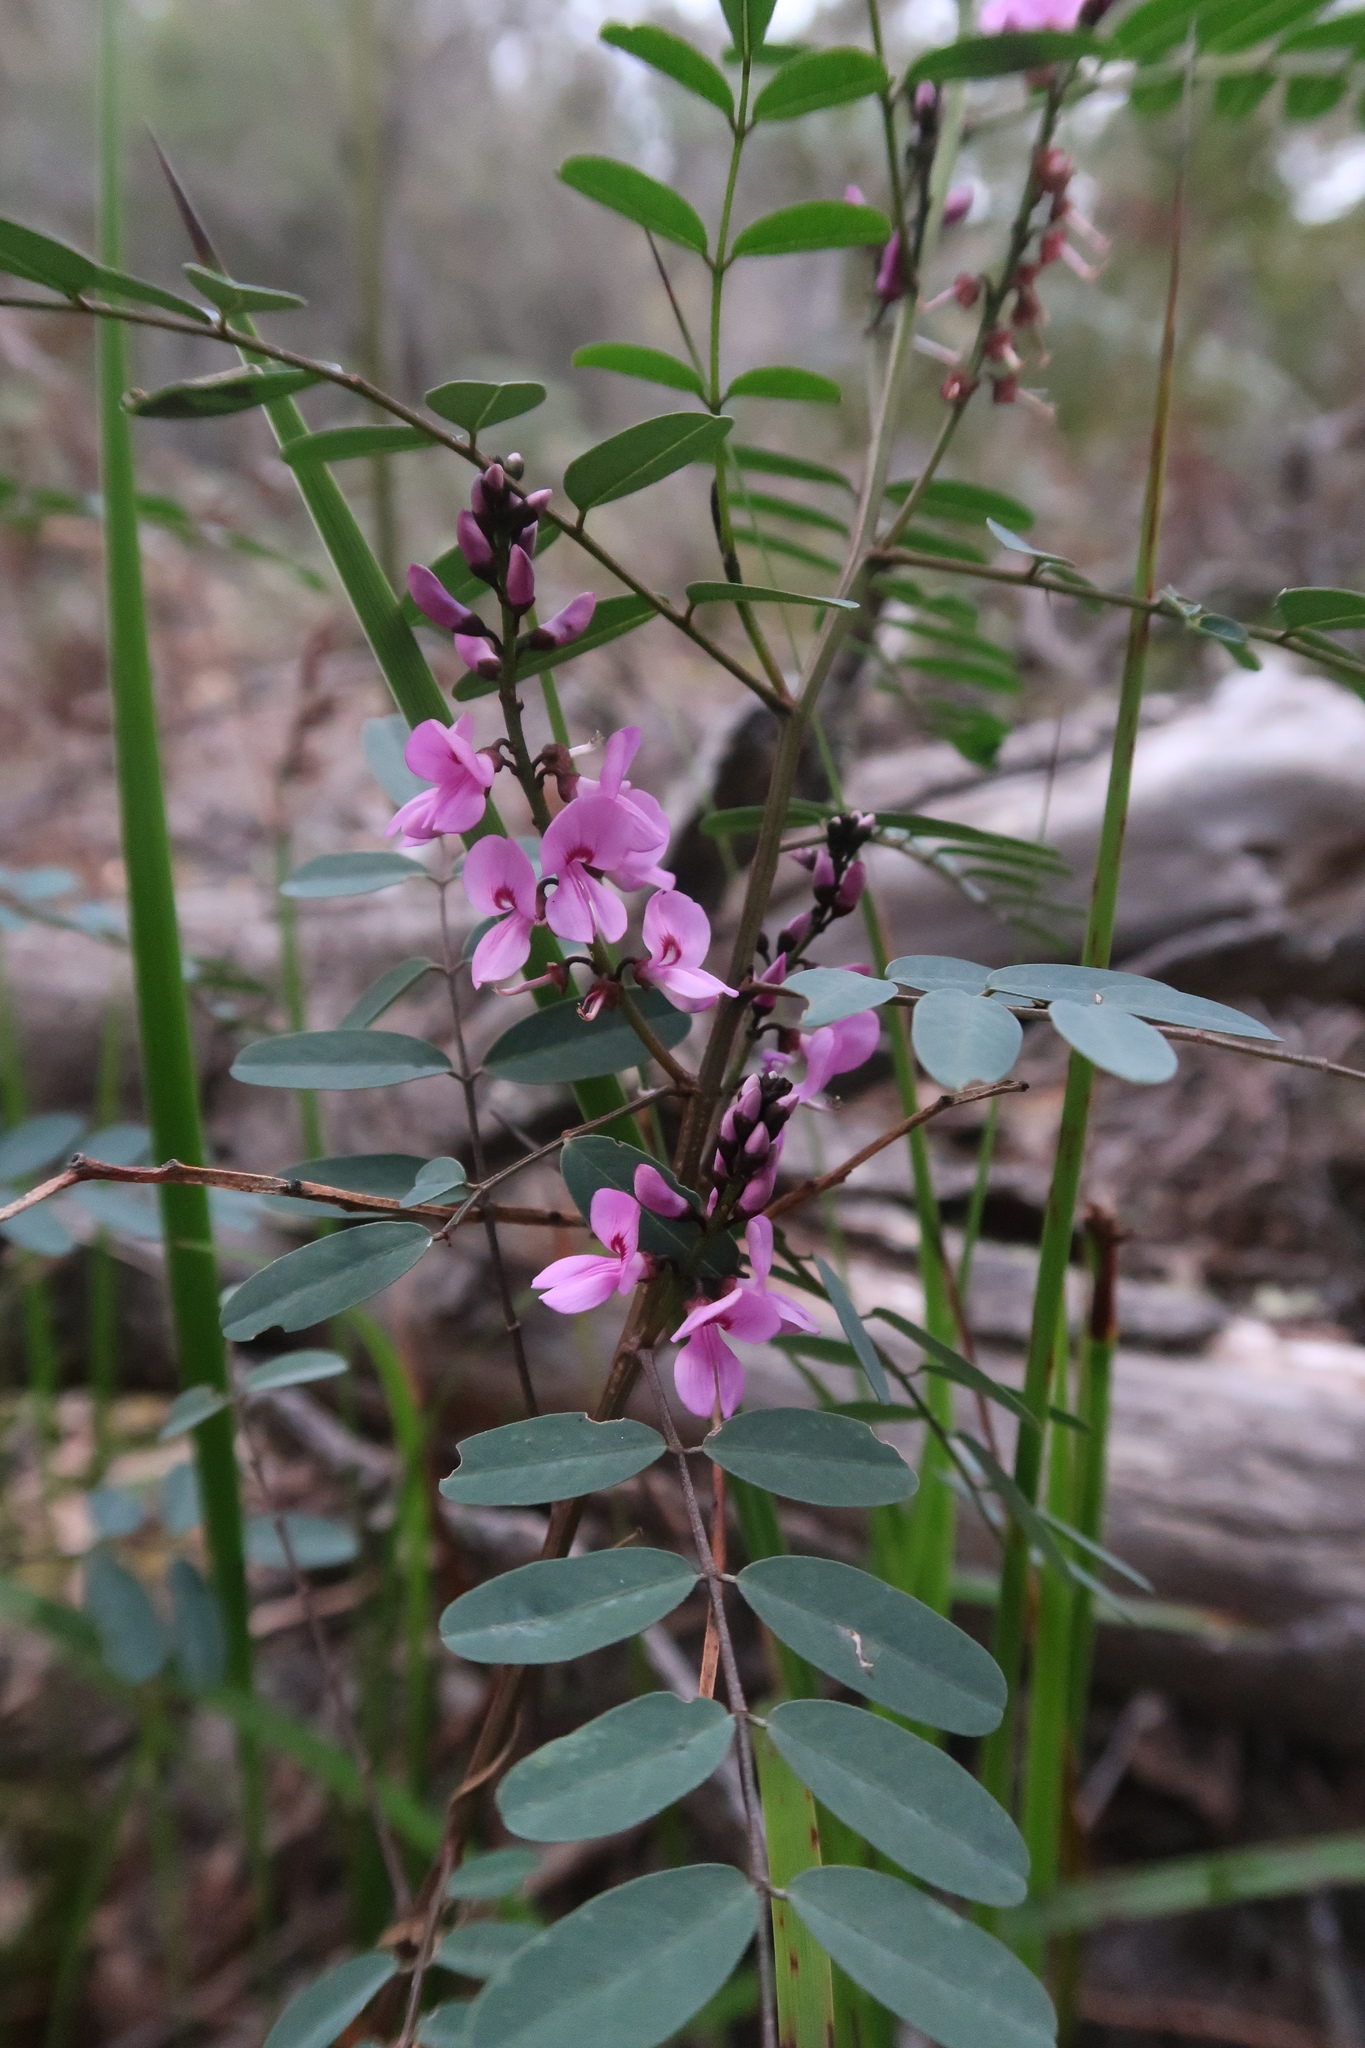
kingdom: Plantae
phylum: Tracheophyta
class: Magnoliopsida
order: Fabales
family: Fabaceae
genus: Indigofera
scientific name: Indigofera australis
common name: Australian indigo
